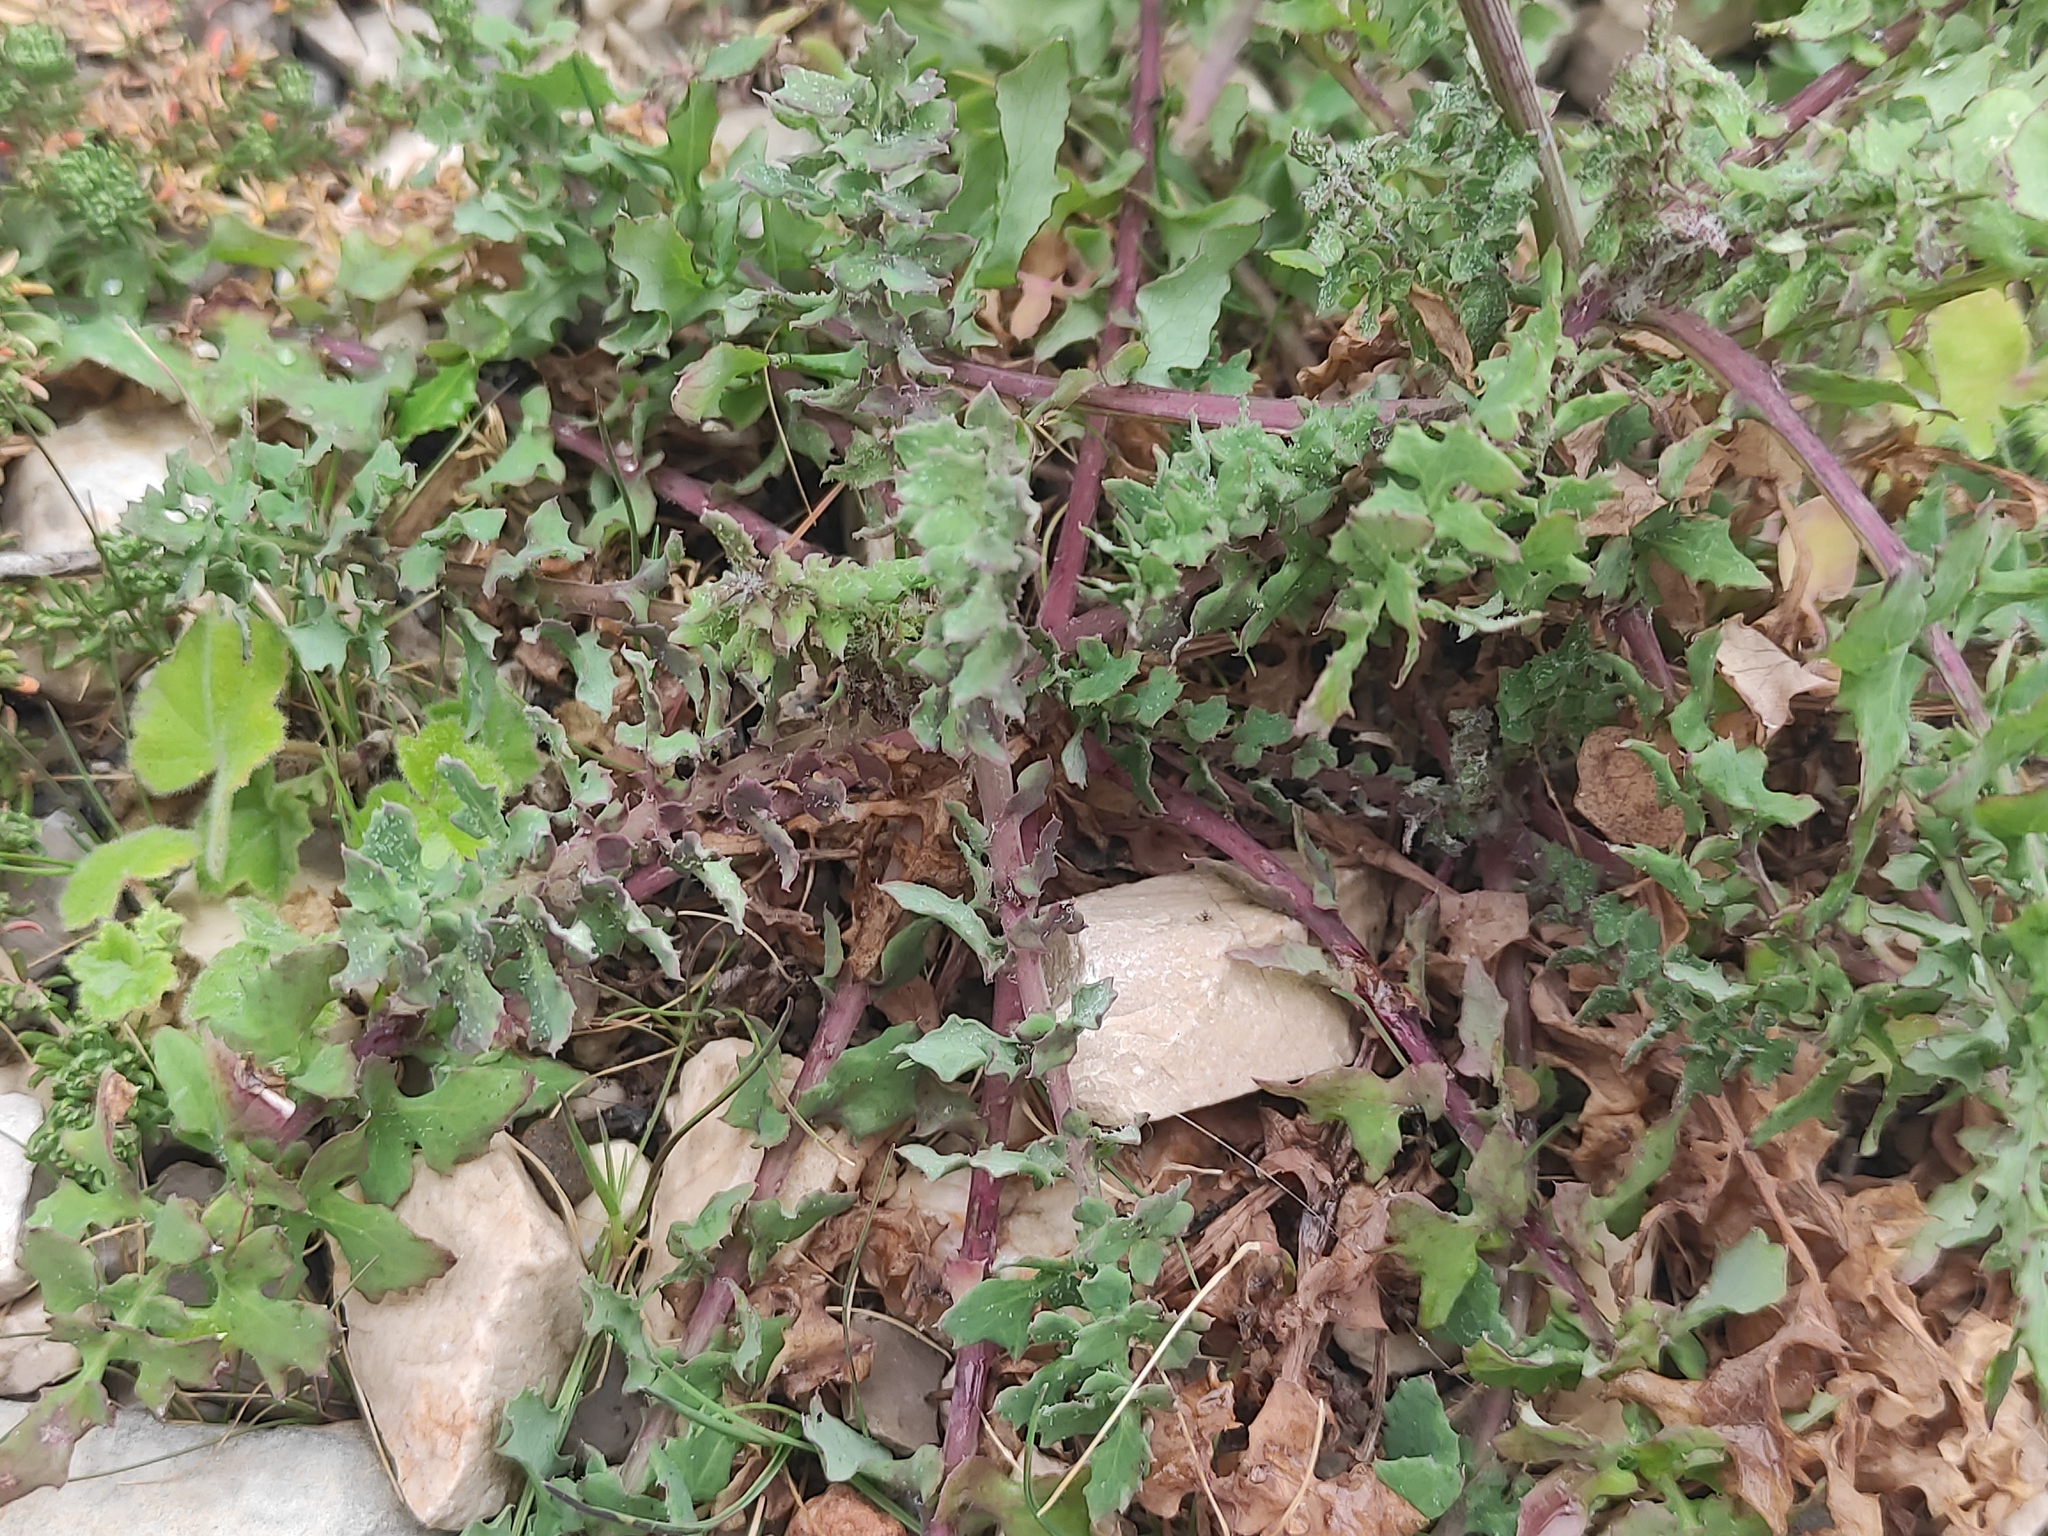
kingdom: Plantae
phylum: Tracheophyta
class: Magnoliopsida
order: Asterales
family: Asteraceae
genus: Sonchus
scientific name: Sonchus tenerrimus
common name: Clammy sowthistle
